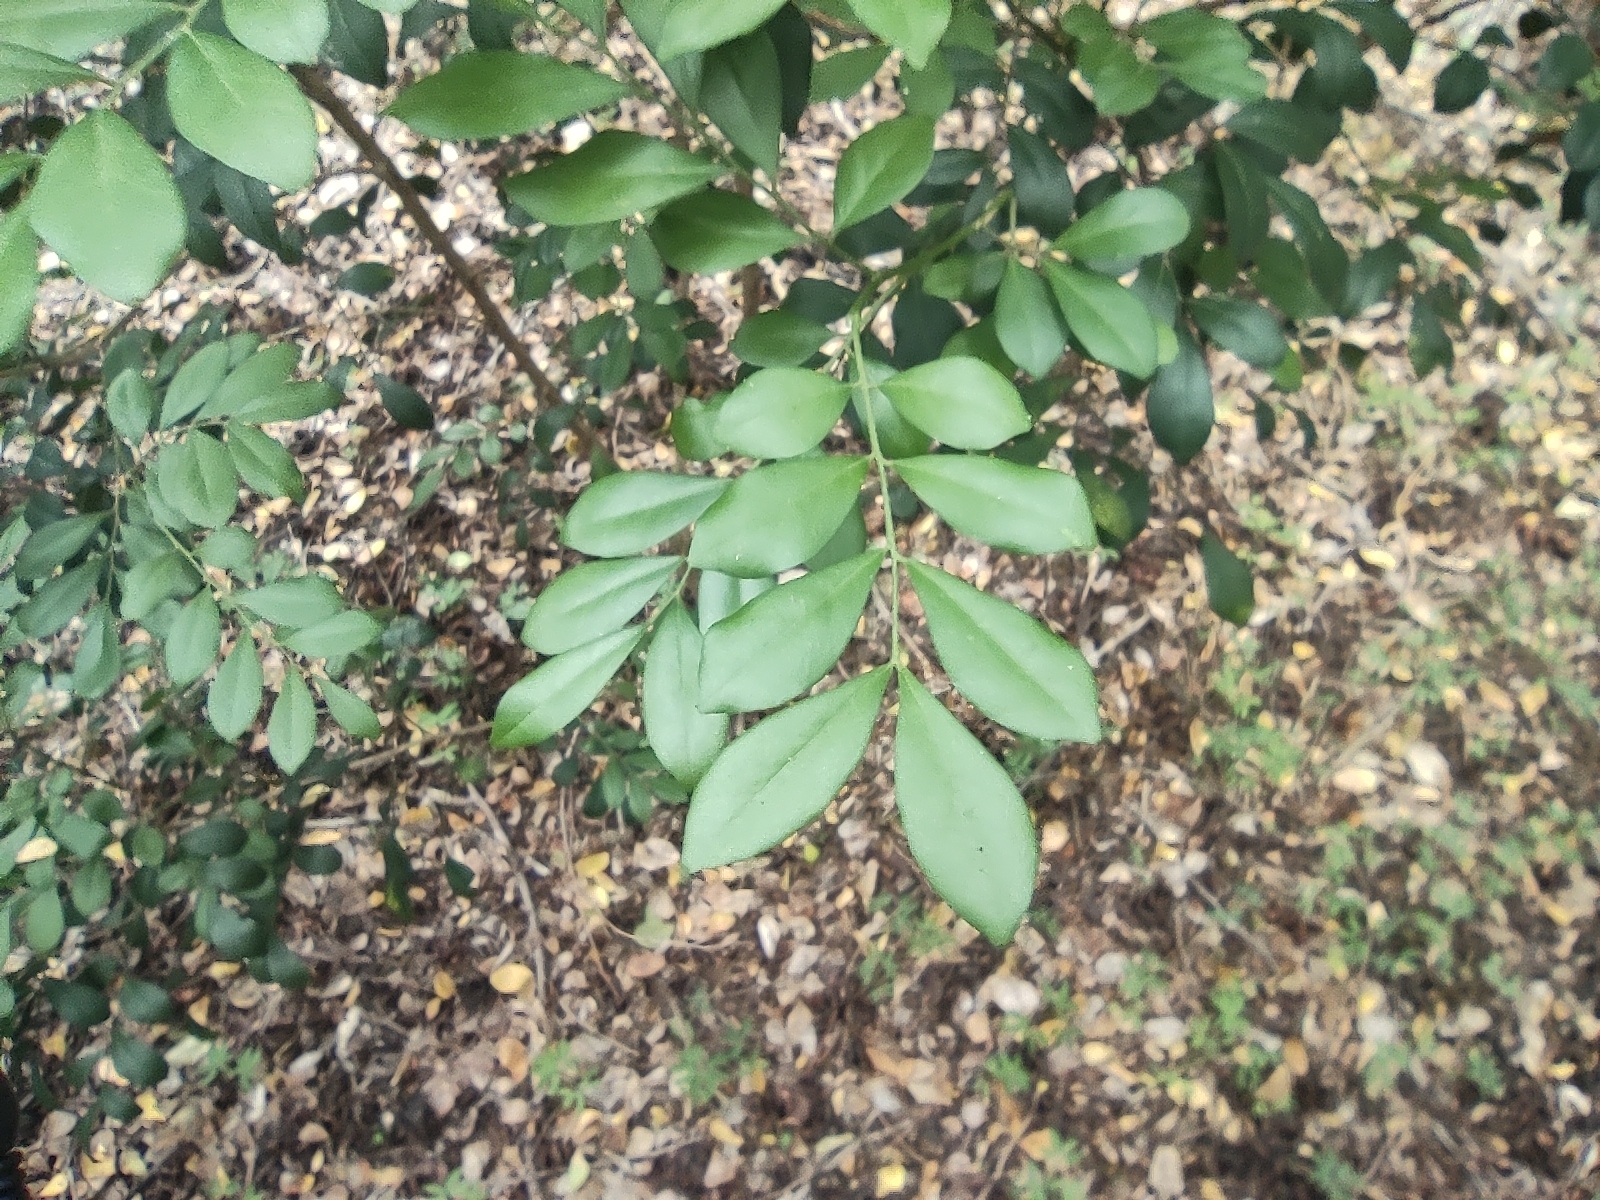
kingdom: Plantae
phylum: Tracheophyta
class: Magnoliopsida
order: Sapindales
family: Rutaceae
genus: Murraya
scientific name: Murraya paniculata
